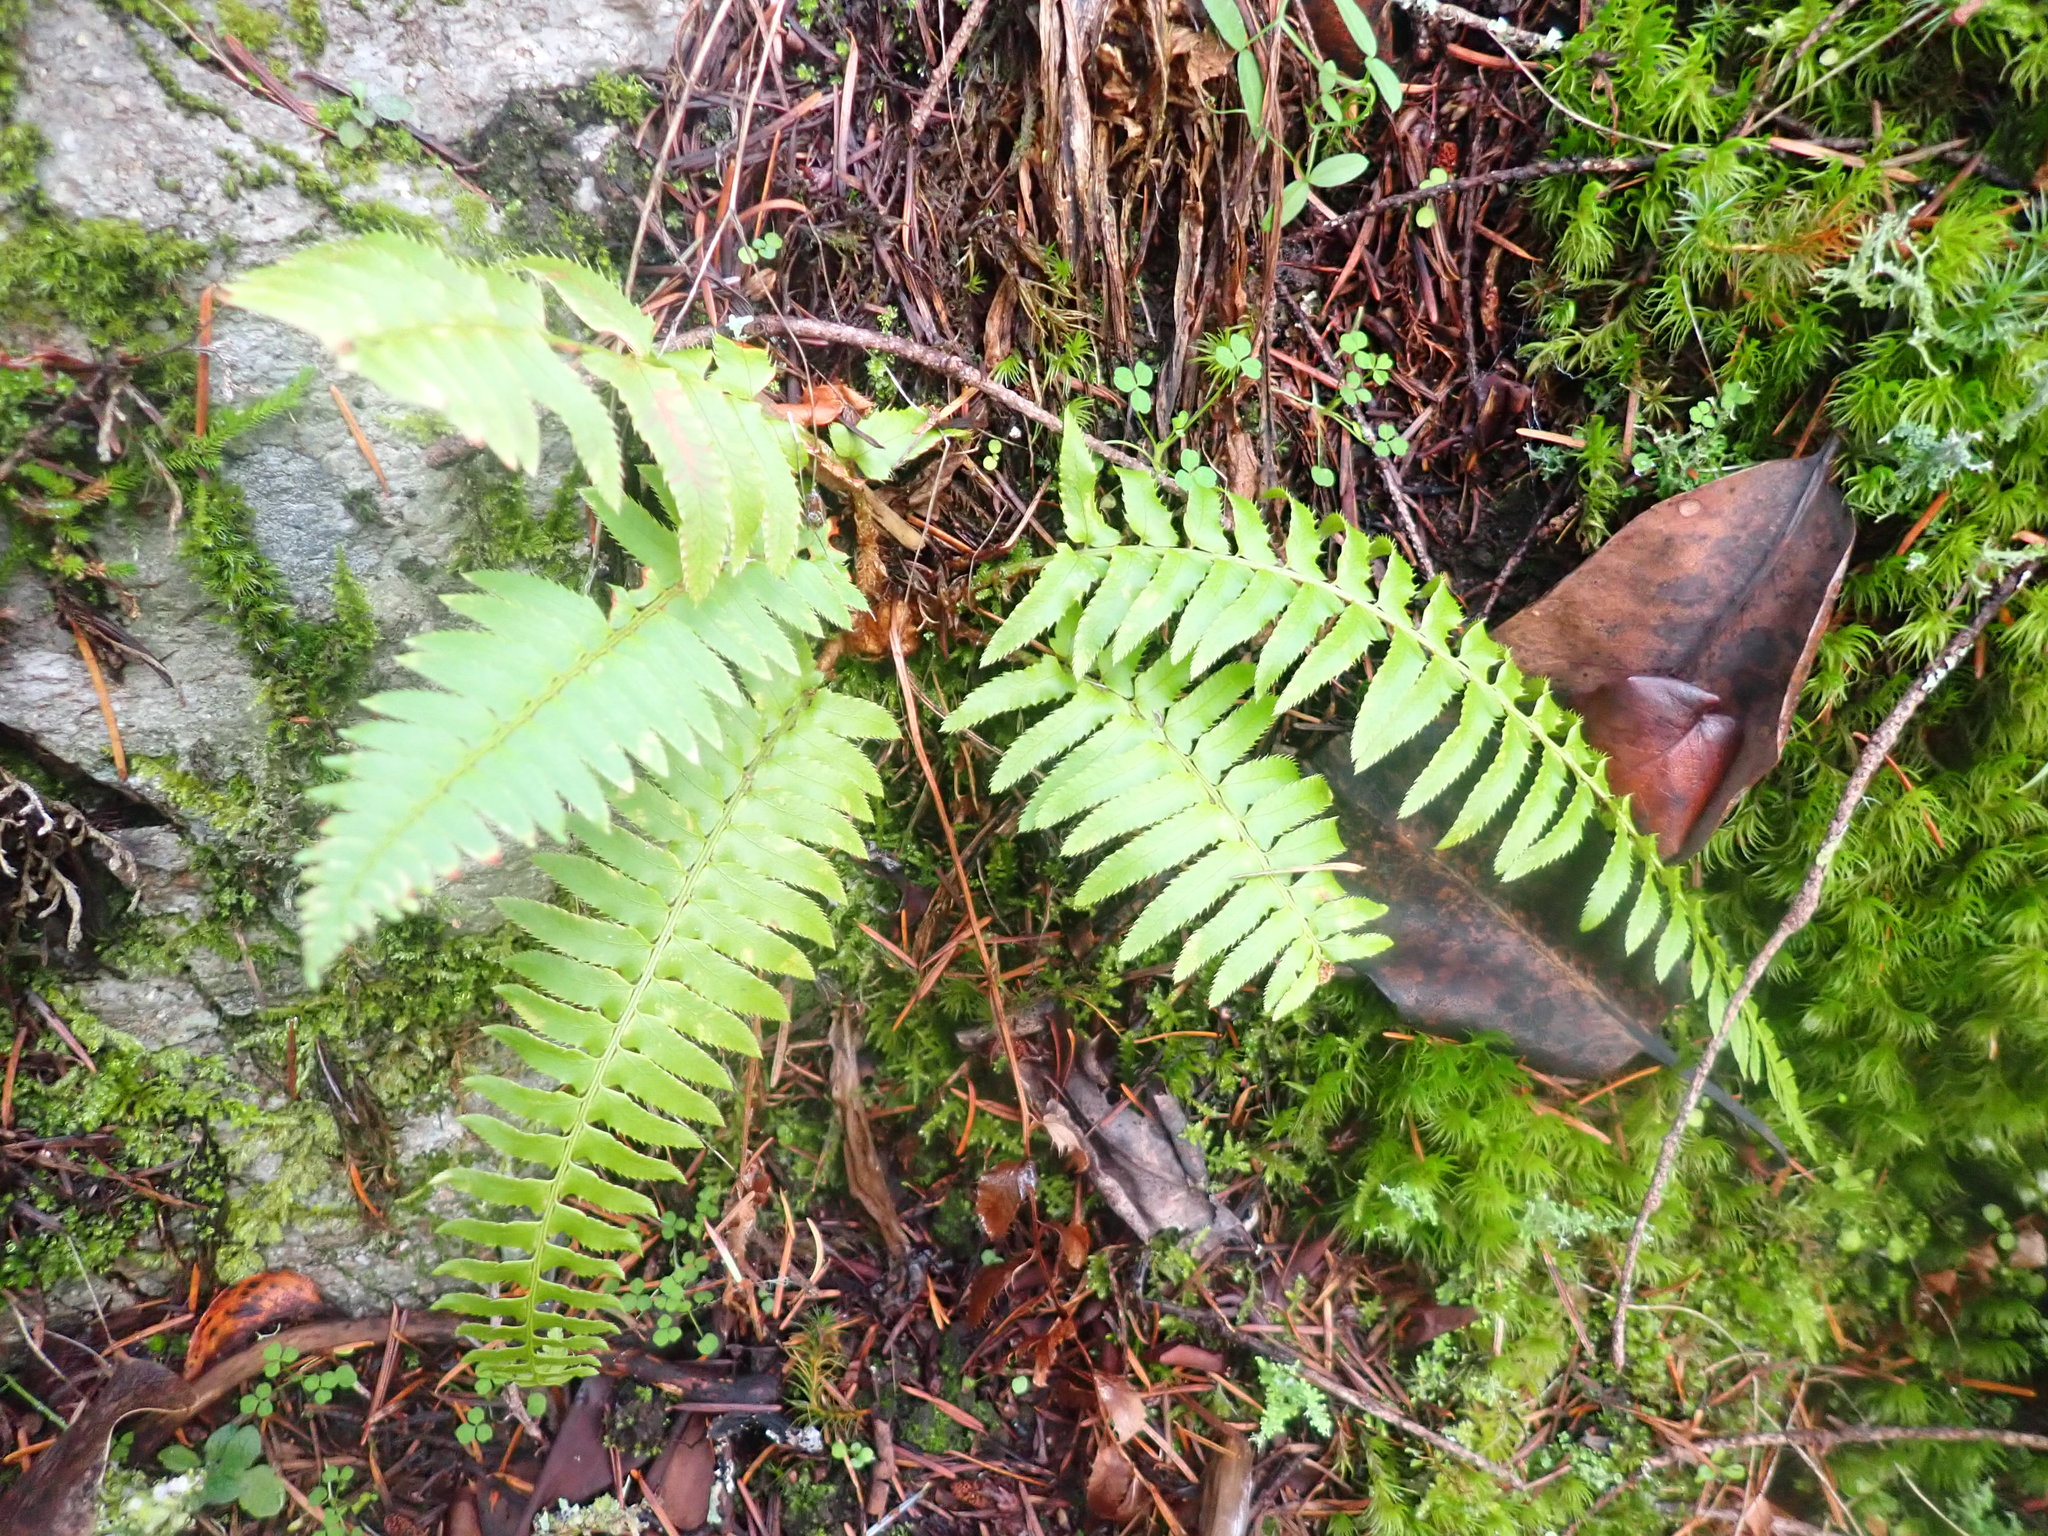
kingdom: Plantae
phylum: Tracheophyta
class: Polypodiopsida
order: Polypodiales
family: Dryopteridaceae
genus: Polystichum
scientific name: Polystichum munitum
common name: Western sword-fern
